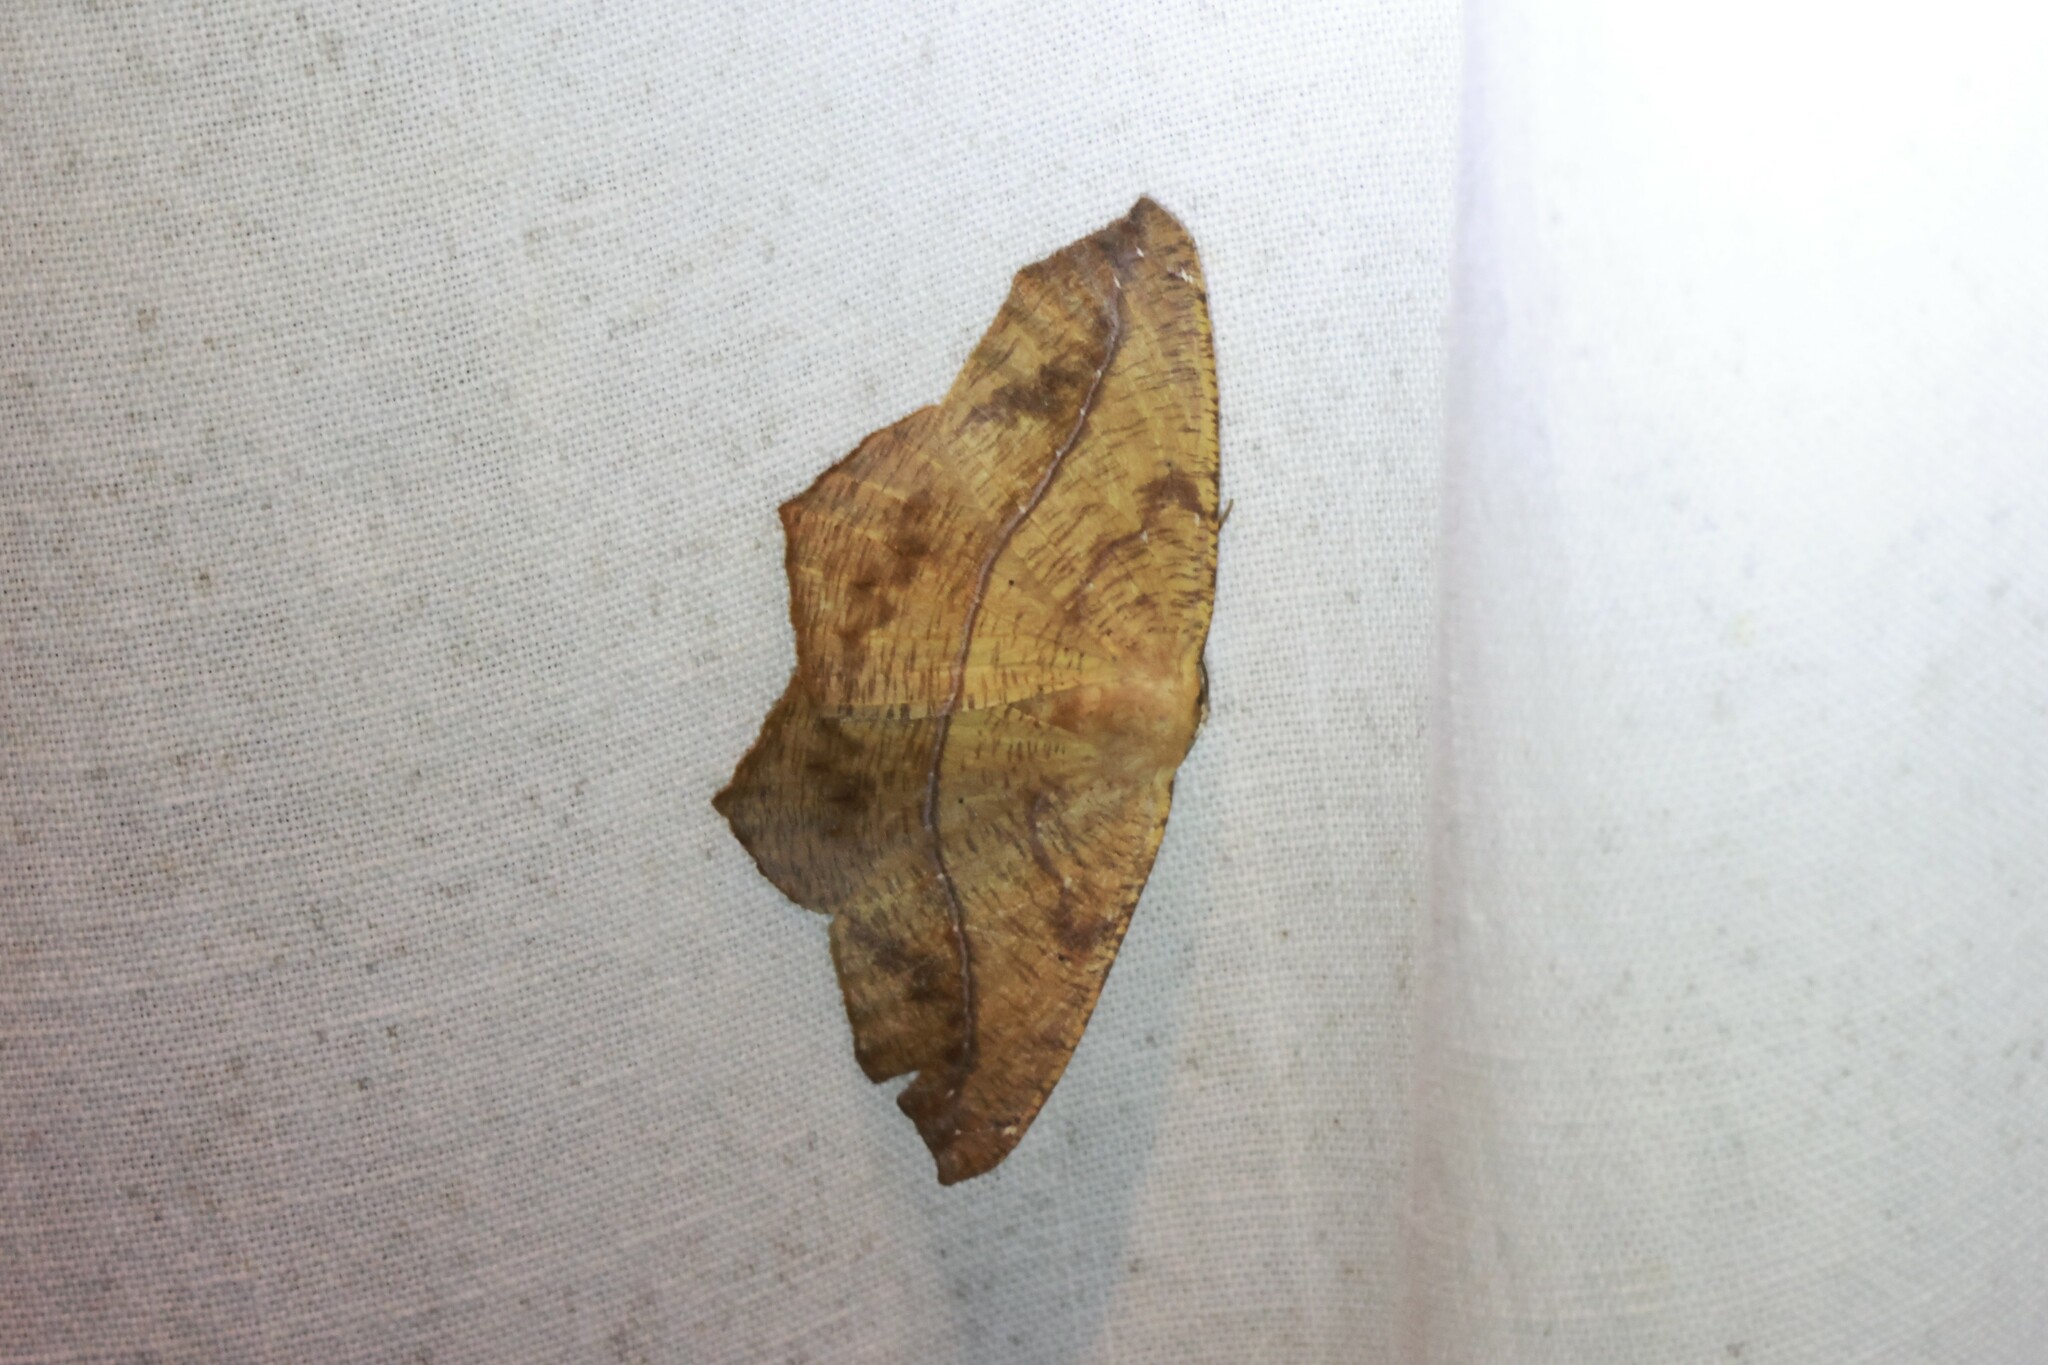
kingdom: Animalia
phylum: Arthropoda
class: Insecta
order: Lepidoptera
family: Geometridae
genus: Prochoerodes
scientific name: Prochoerodes lineola
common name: Large maple spanworm
